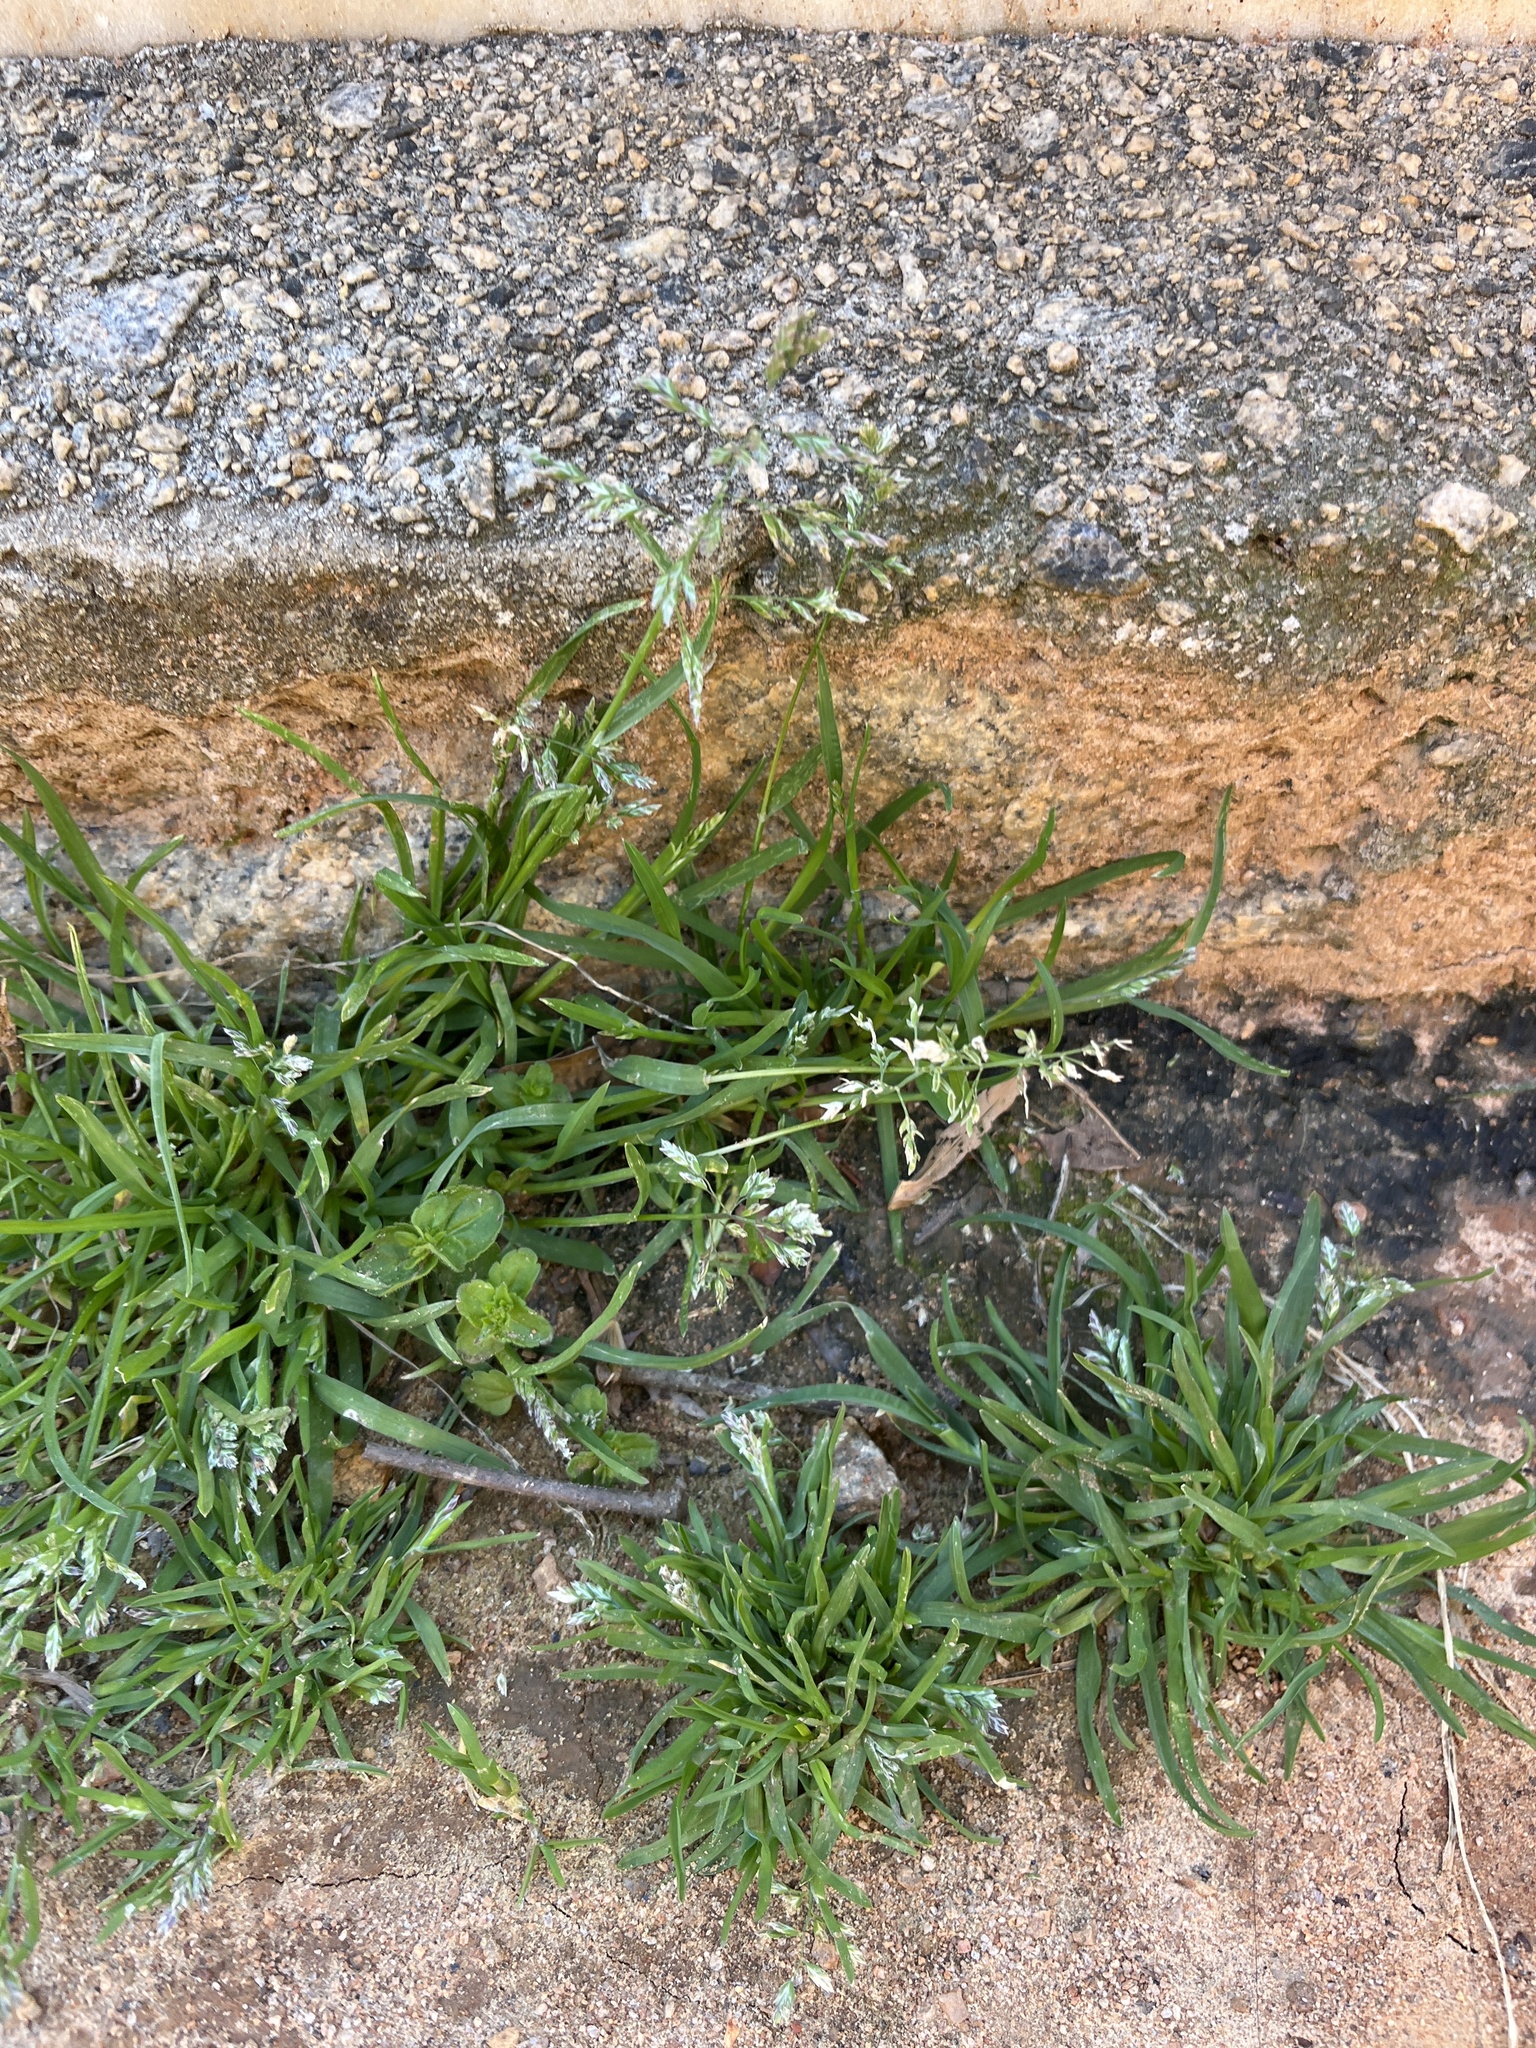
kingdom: Plantae
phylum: Tracheophyta
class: Liliopsida
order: Poales
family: Poaceae
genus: Poa
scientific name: Poa annua
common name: Annual bluegrass
